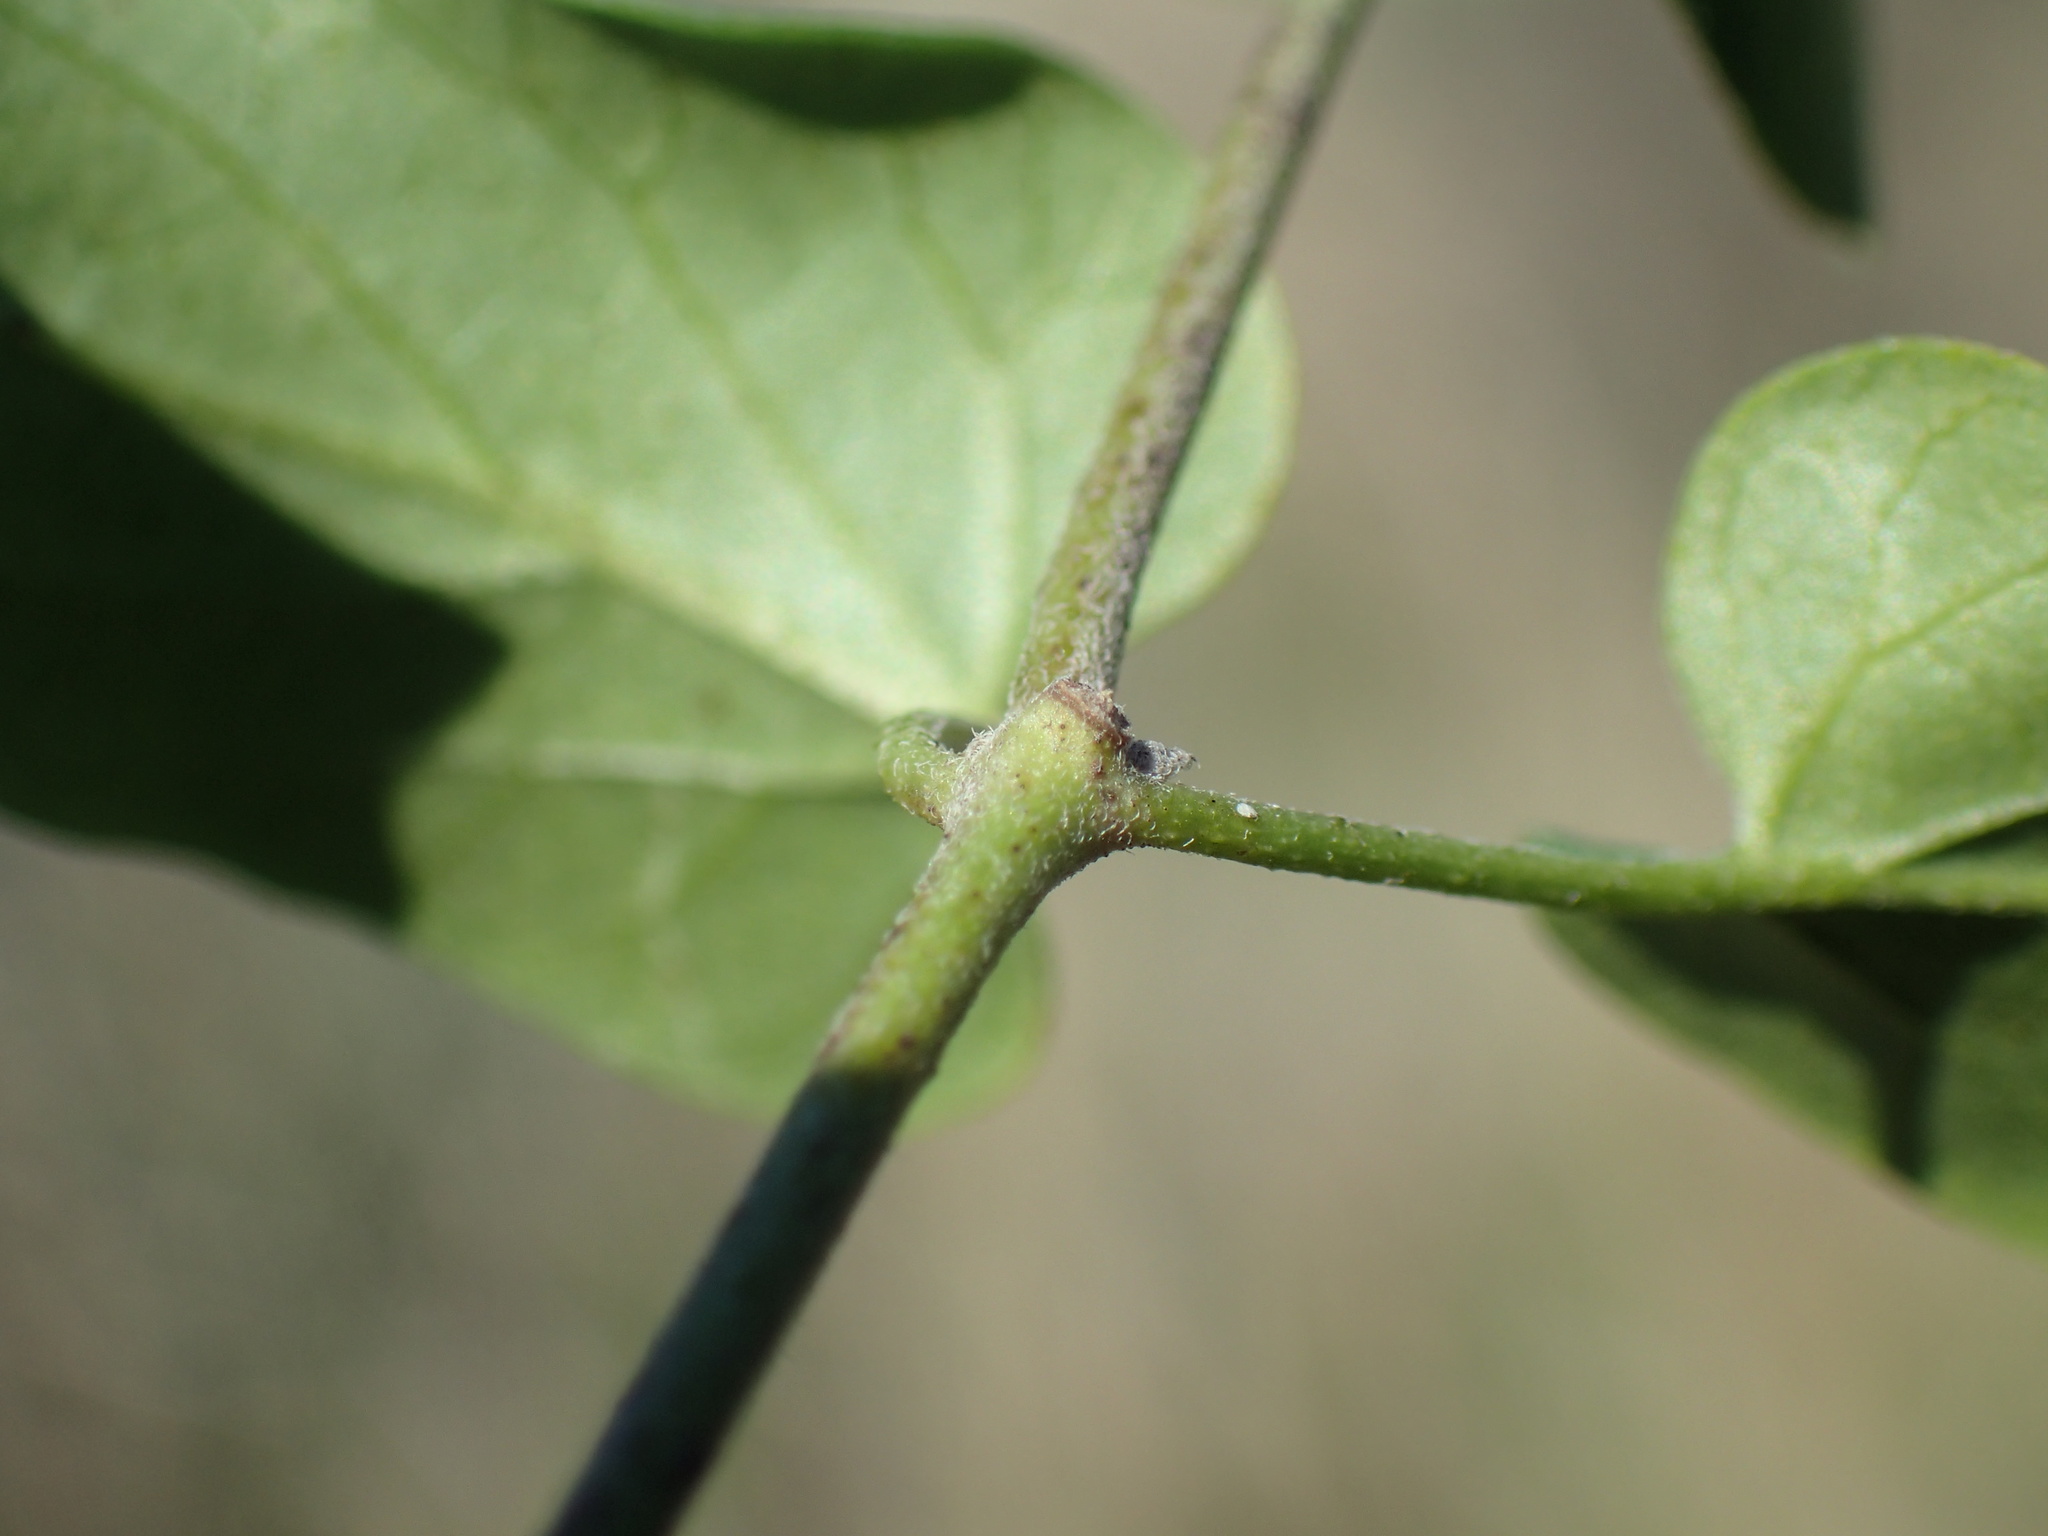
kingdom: Plantae
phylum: Tracheophyta
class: Magnoliopsida
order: Gentianales
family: Apocynaceae
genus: Cynanchum
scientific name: Cynanchum
